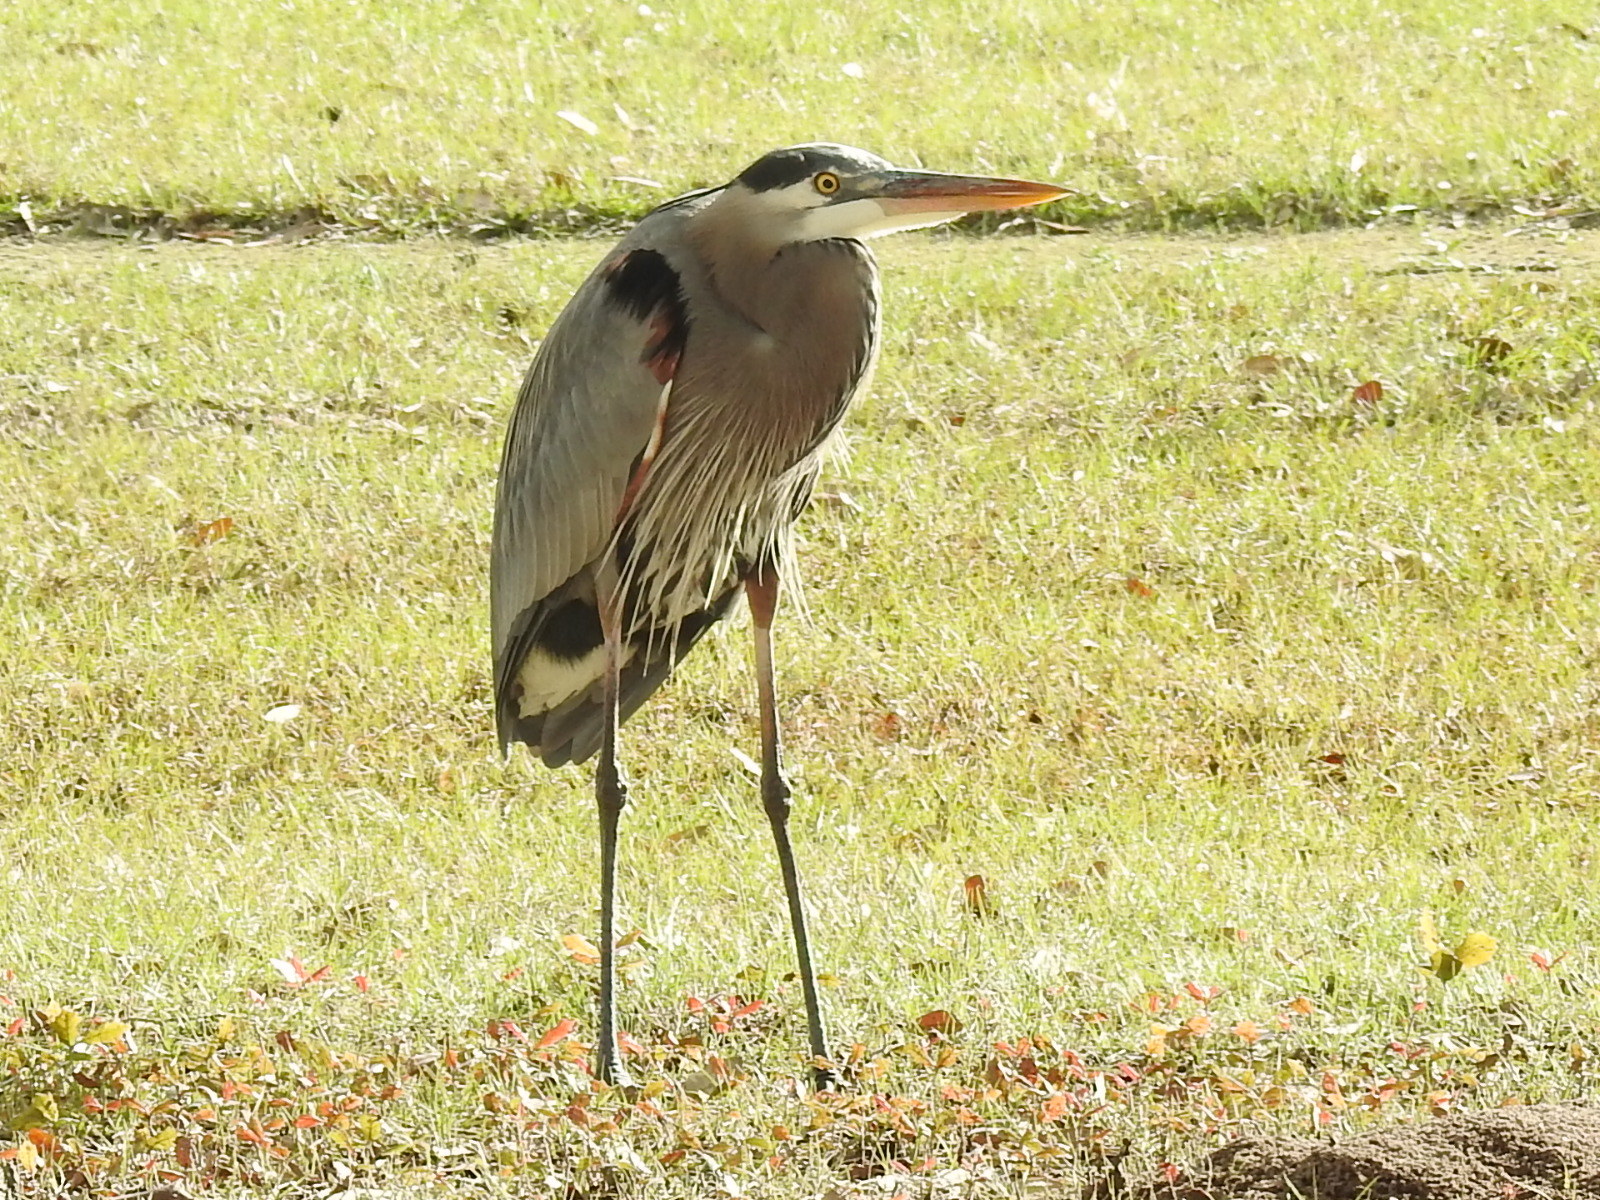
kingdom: Animalia
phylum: Chordata
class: Aves
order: Pelecaniformes
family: Ardeidae
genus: Ardea
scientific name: Ardea herodias
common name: Great blue heron
